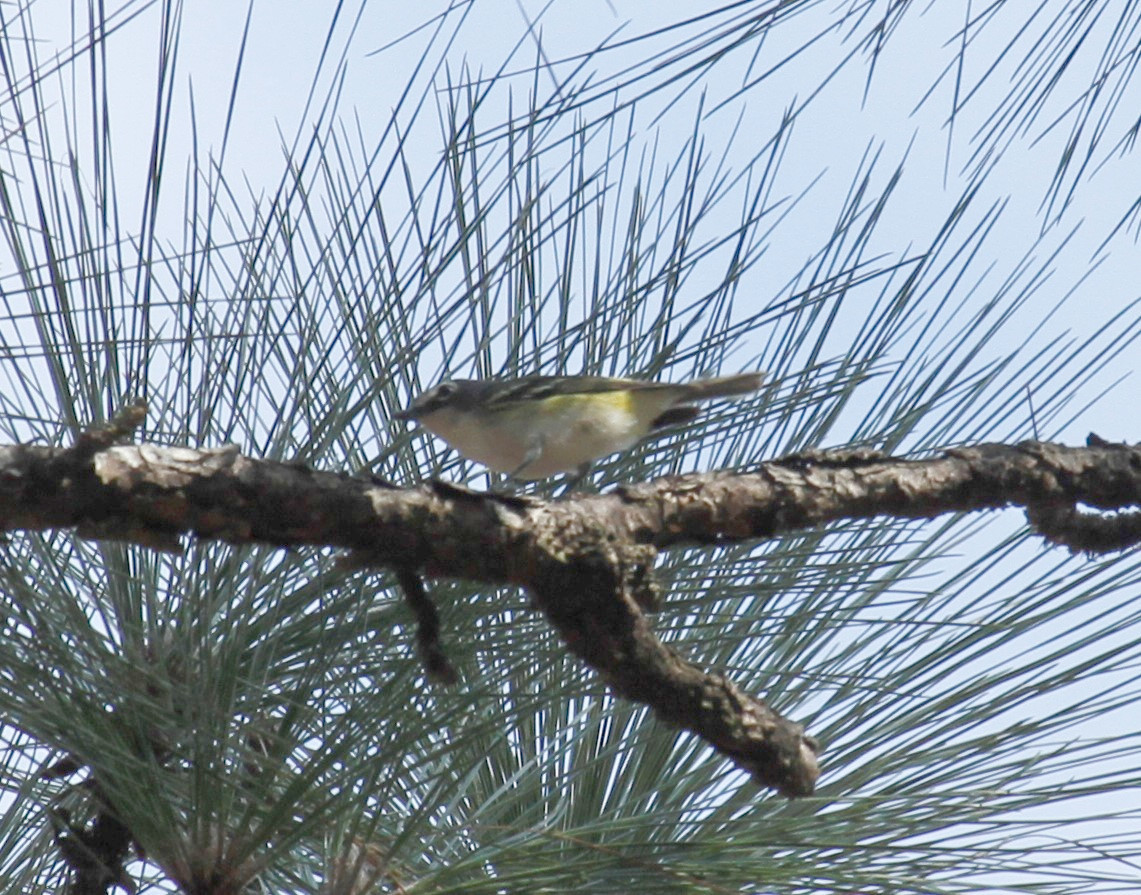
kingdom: Animalia
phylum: Chordata
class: Aves
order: Passeriformes
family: Vireonidae
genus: Vireo
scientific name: Vireo solitarius
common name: Blue-headed vireo
